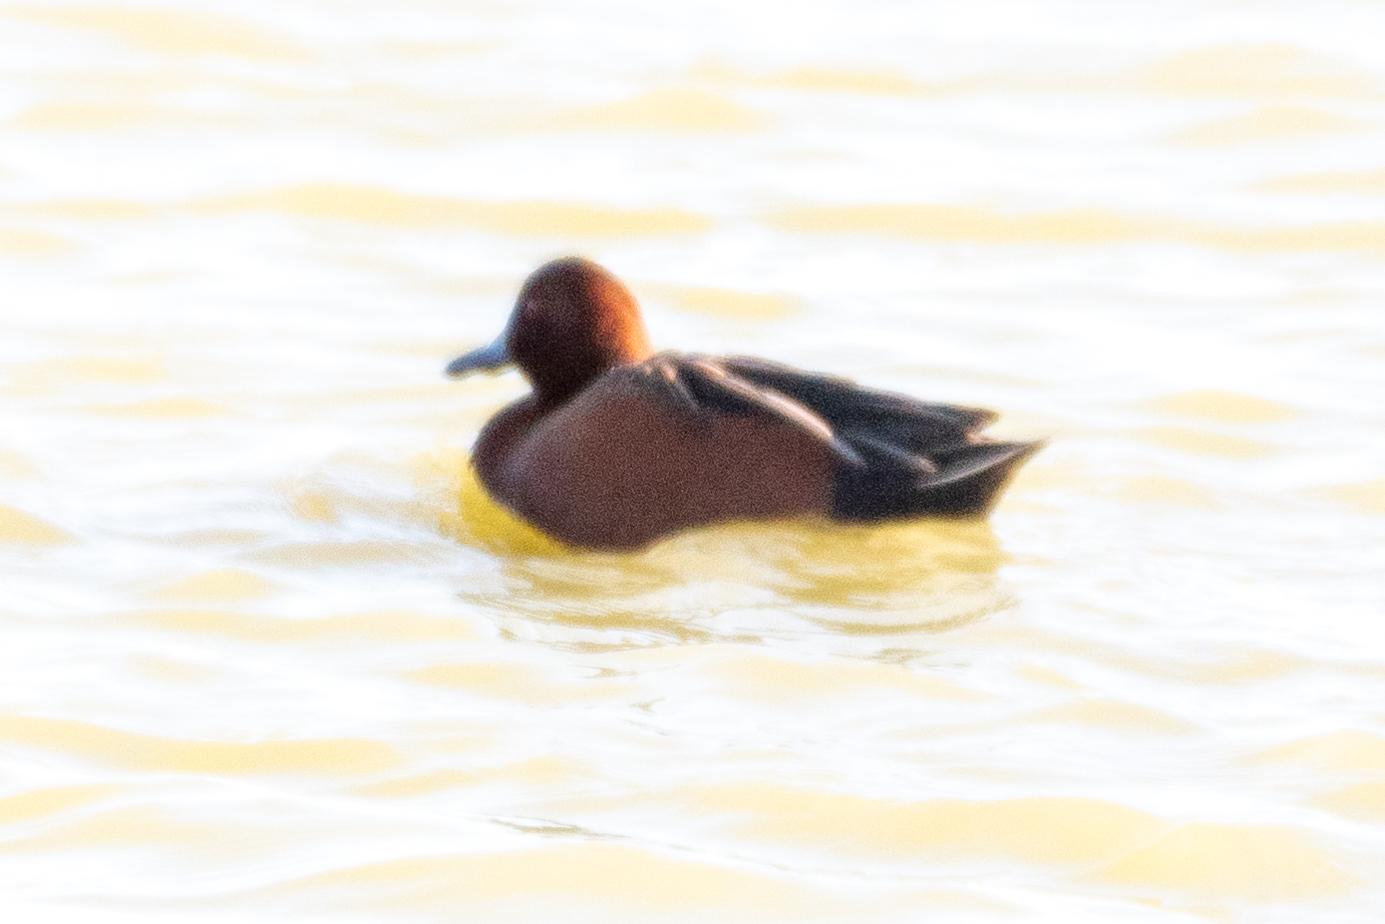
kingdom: Animalia
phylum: Chordata
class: Aves
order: Anseriformes
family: Anatidae
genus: Spatula
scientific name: Spatula cyanoptera
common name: Cinnamon teal
